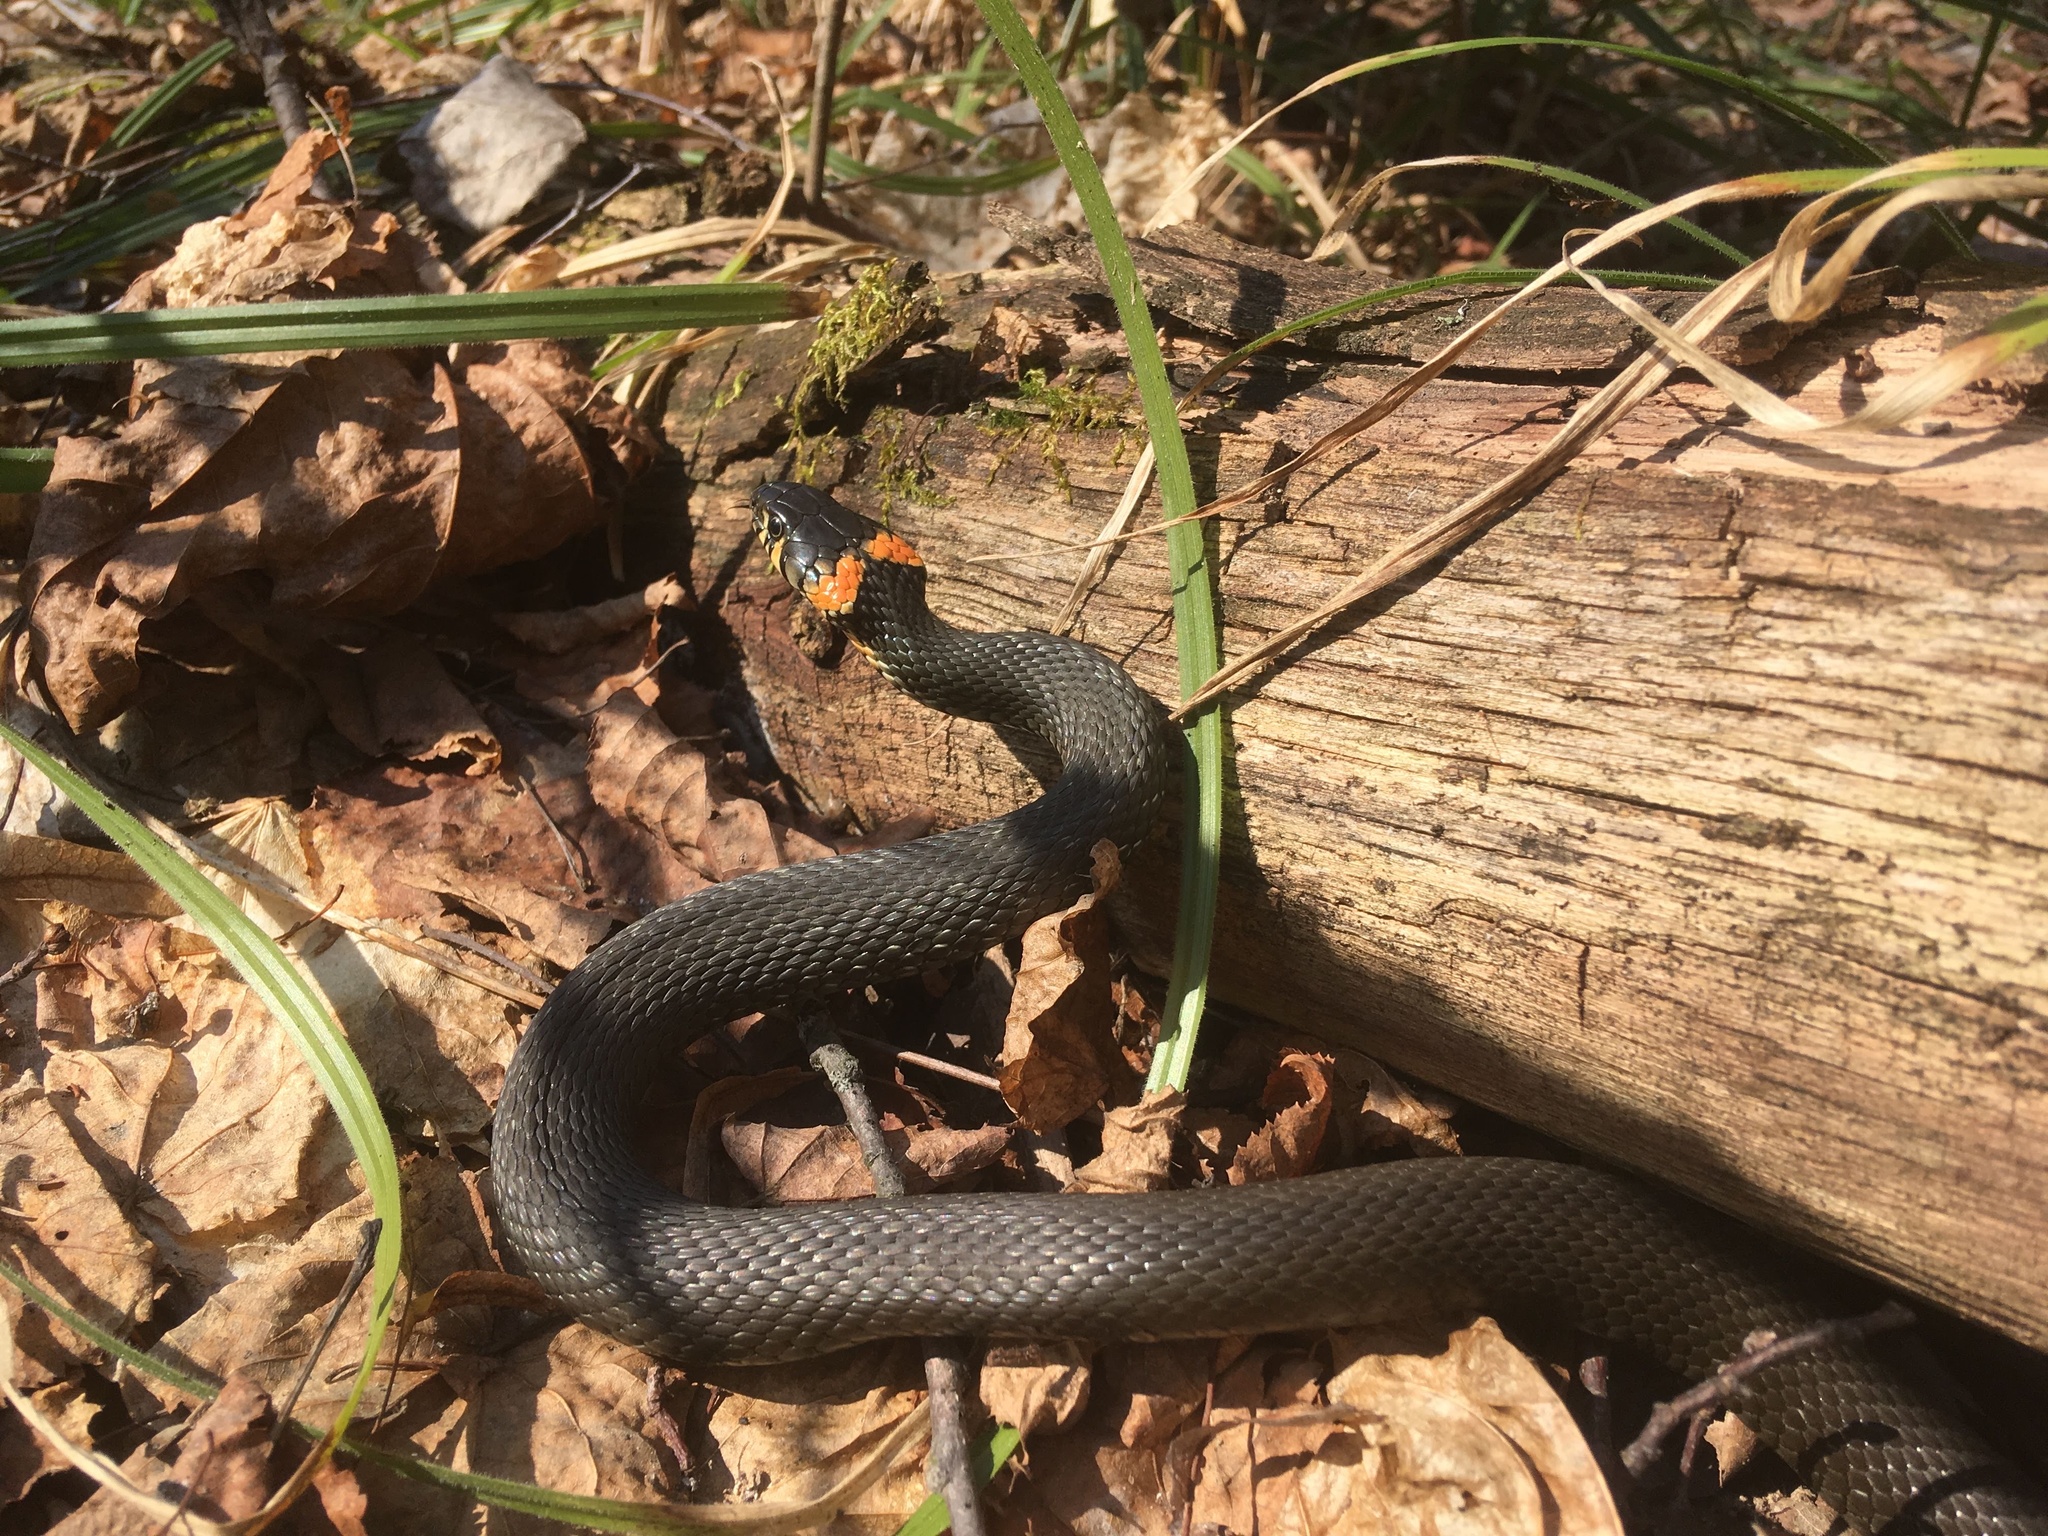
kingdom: Animalia
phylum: Chordata
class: Squamata
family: Colubridae
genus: Natrix
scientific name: Natrix natrix
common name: Grass snake
